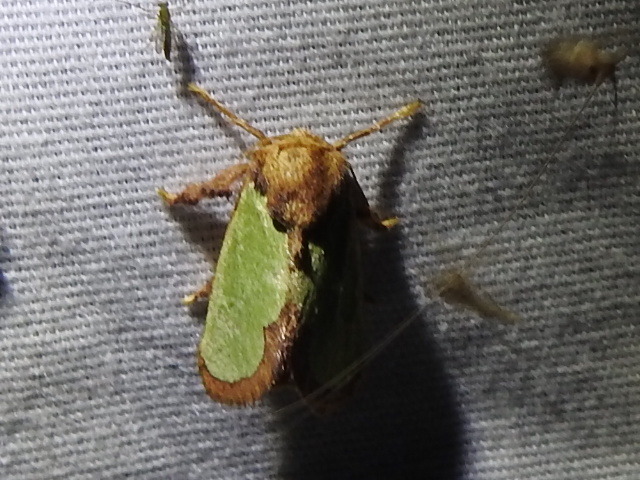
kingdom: Animalia
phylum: Arthropoda
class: Insecta
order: Lepidoptera
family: Limacodidae
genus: Euclea
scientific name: Euclea incisa
